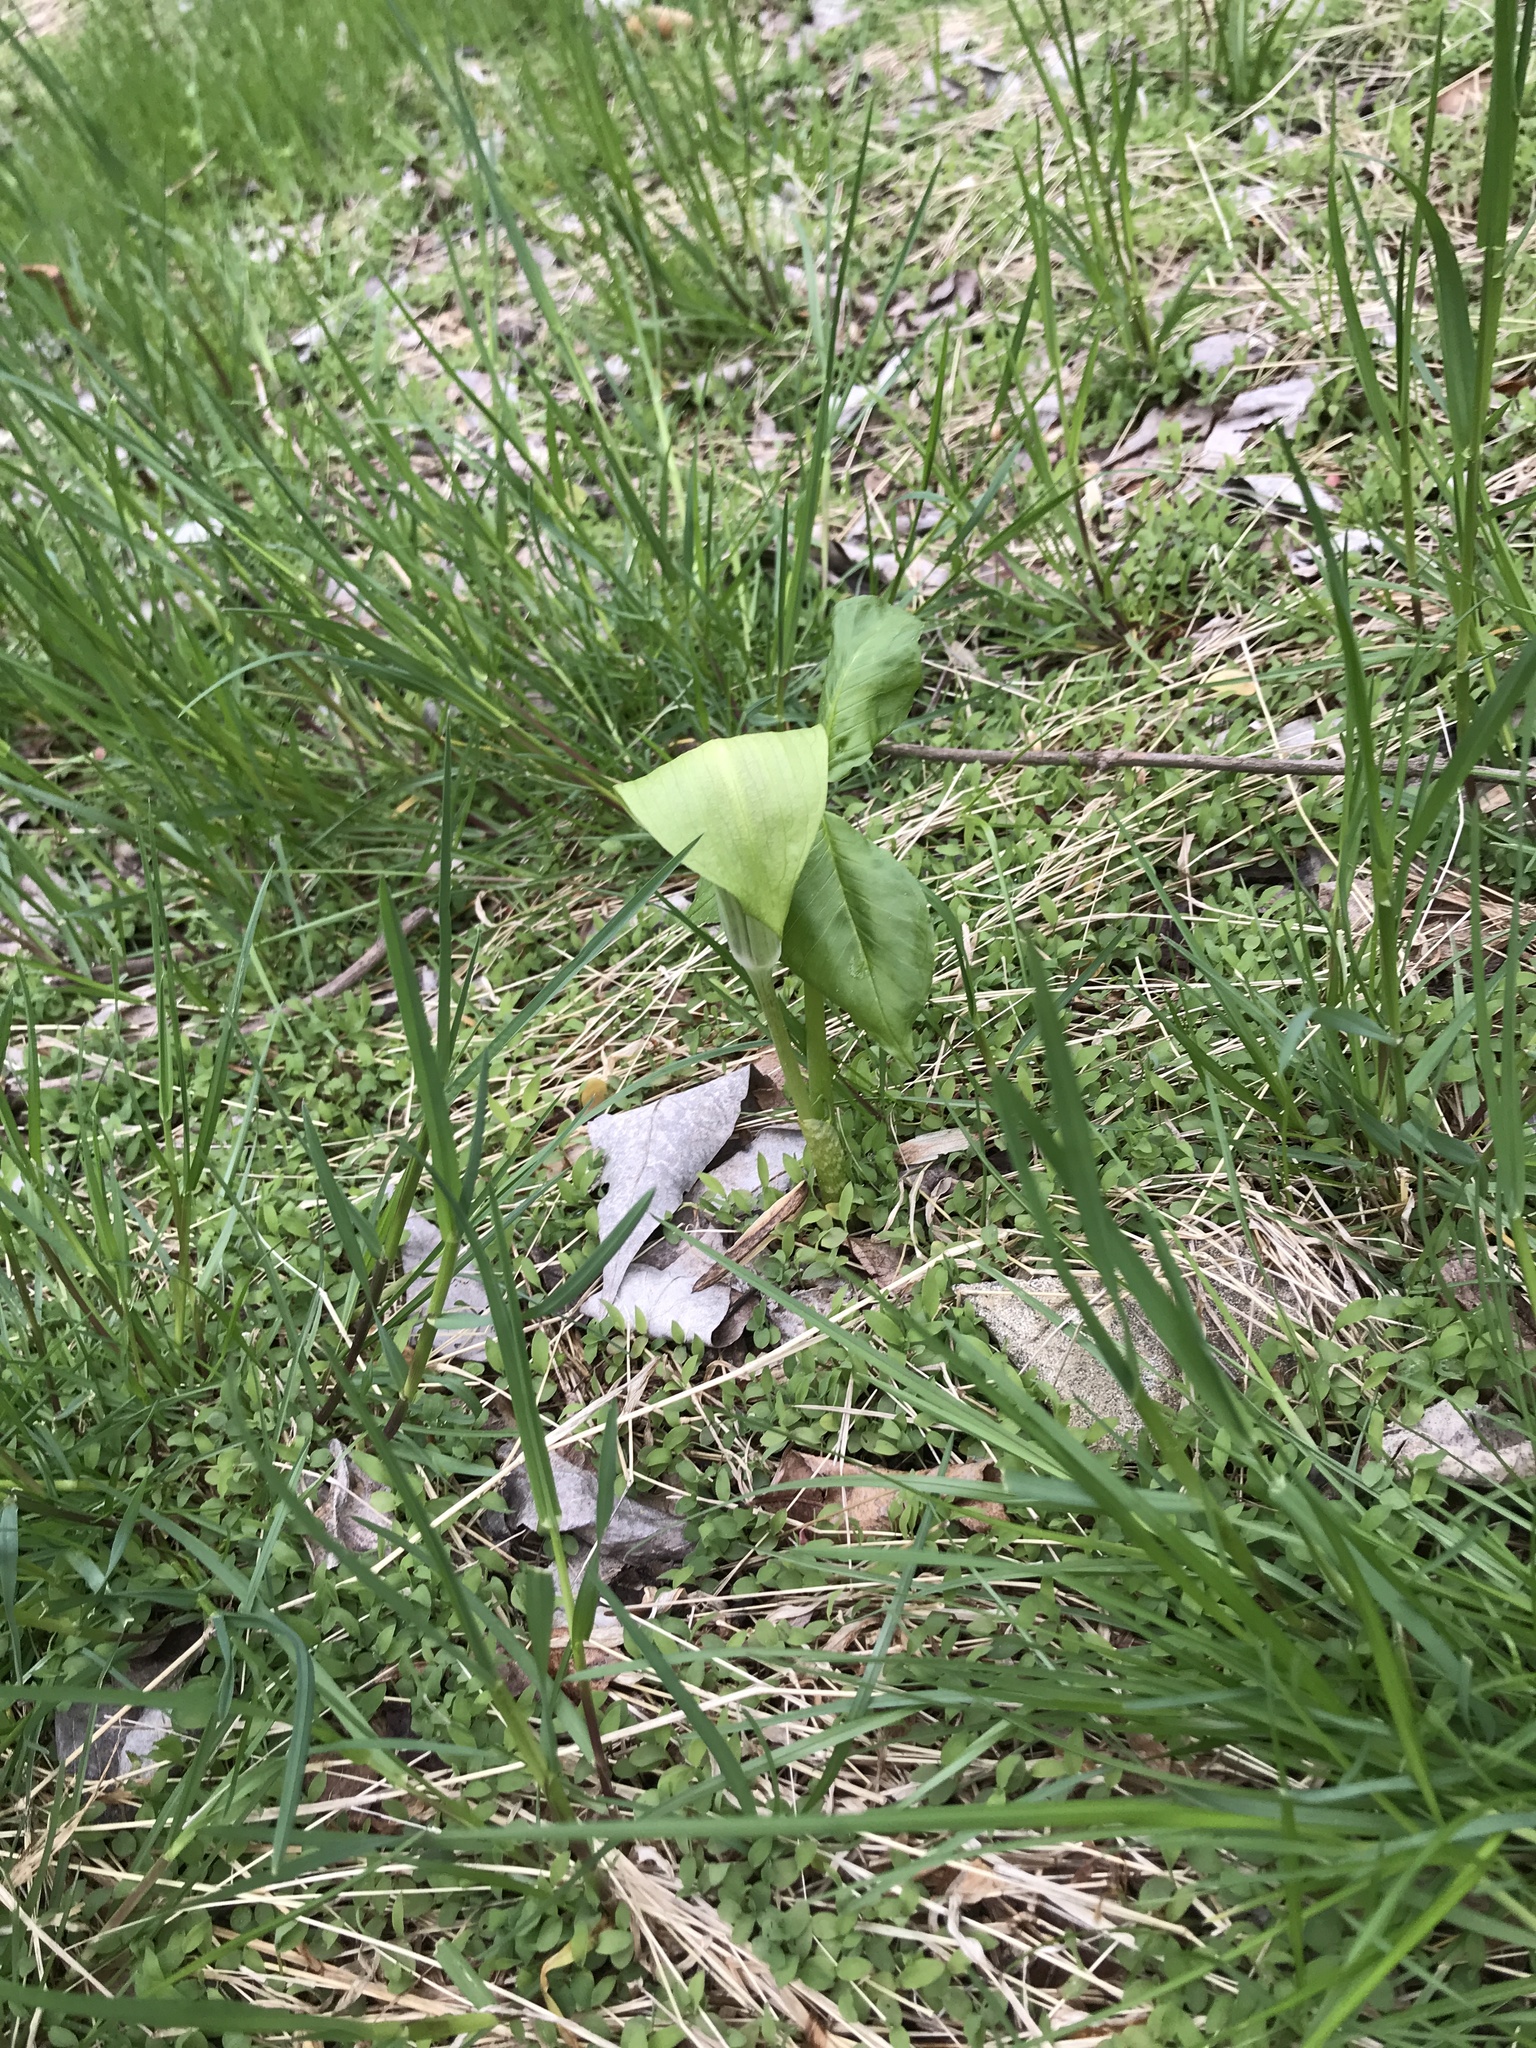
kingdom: Plantae
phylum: Tracheophyta
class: Liliopsida
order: Alismatales
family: Araceae
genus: Arisaema
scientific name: Arisaema triphyllum
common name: Jack-in-the-pulpit
